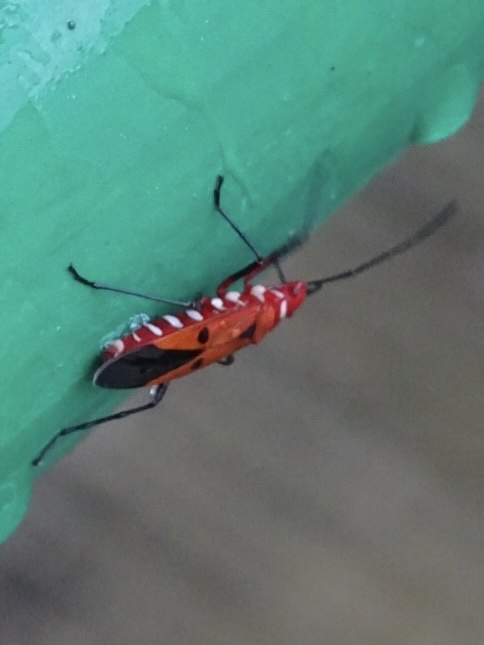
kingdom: Animalia
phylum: Arthropoda
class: Insecta
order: Hemiptera
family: Pyrrhocoridae
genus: Dysdercus
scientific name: Dysdercus cingulatus
